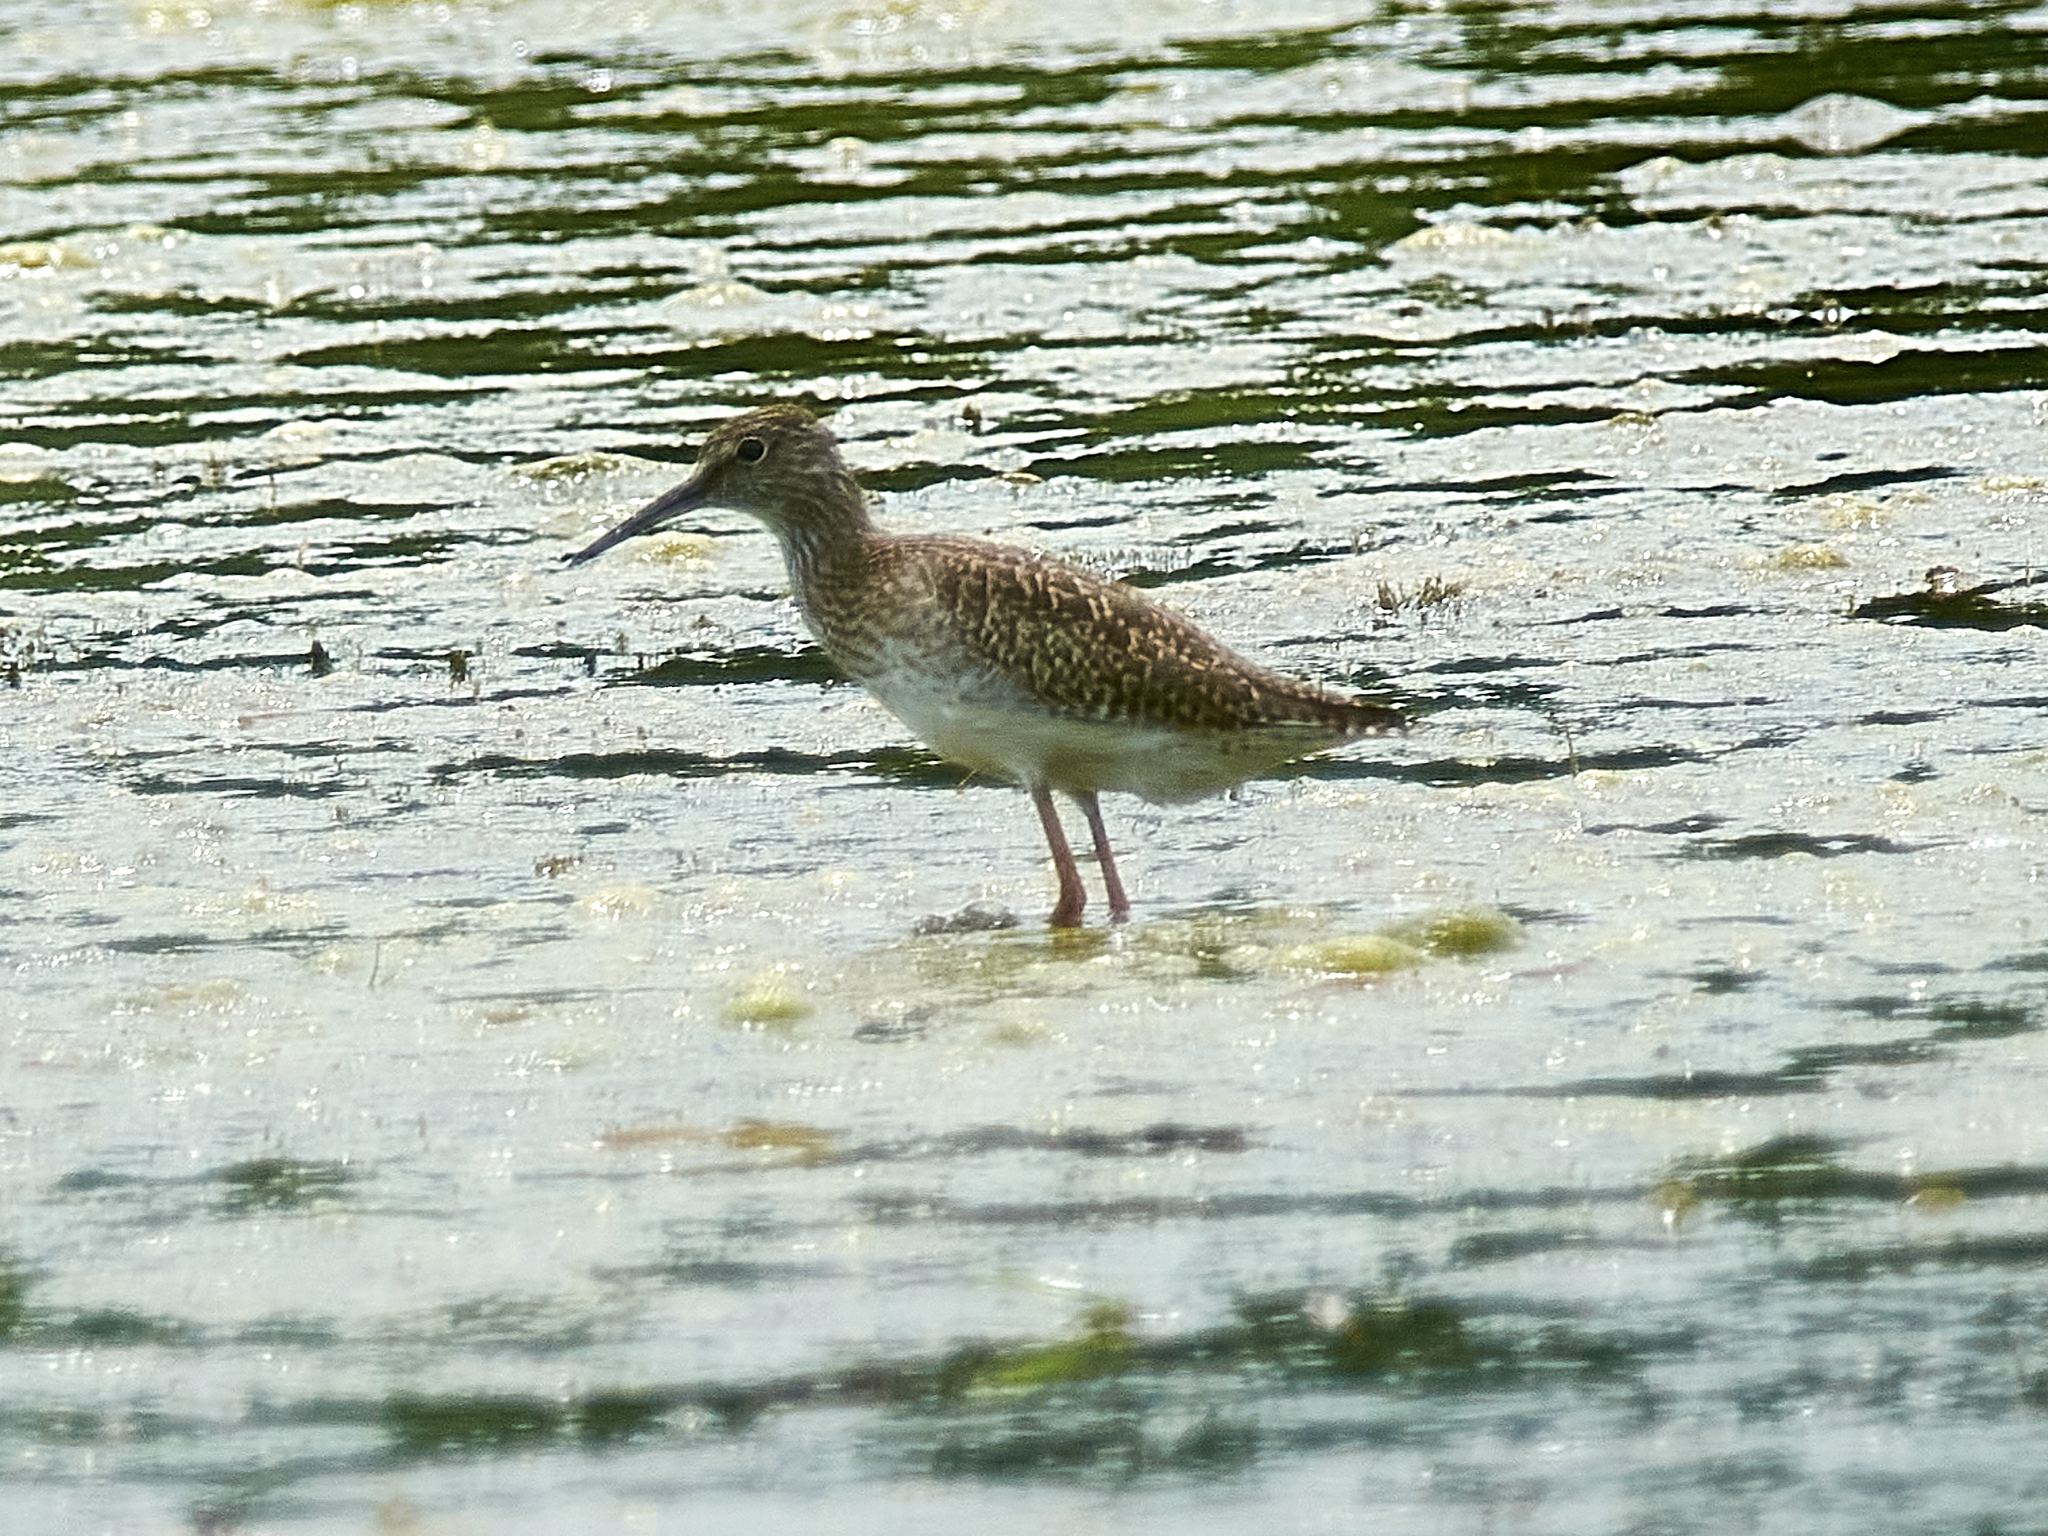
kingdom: Animalia
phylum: Chordata
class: Aves
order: Charadriiformes
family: Scolopacidae
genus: Tringa
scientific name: Tringa totanus
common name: Common redshank
